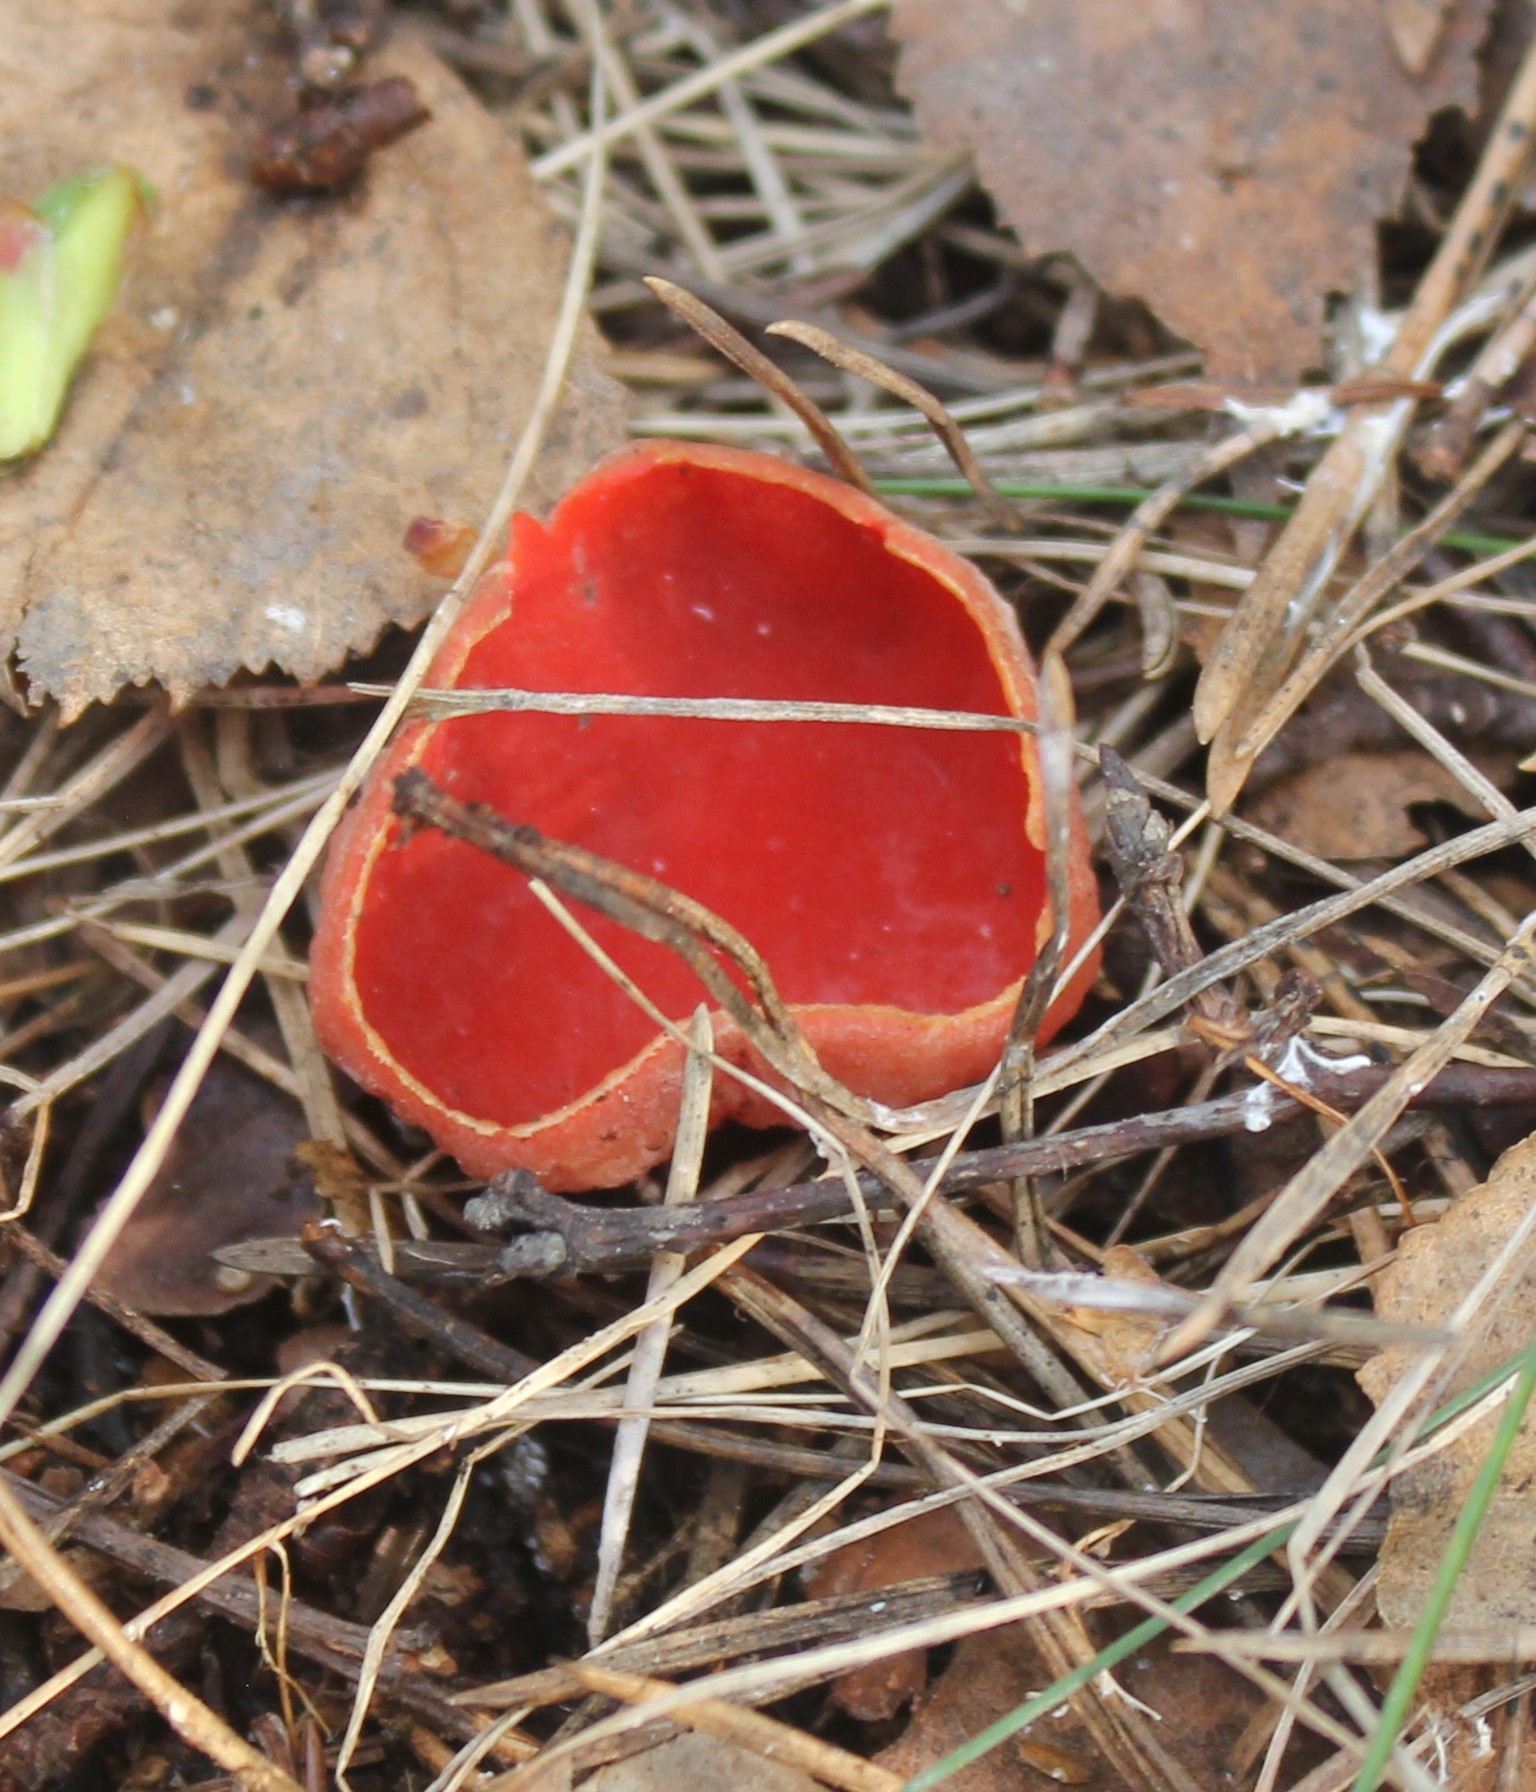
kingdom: Fungi
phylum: Ascomycota
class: Pezizomycetes
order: Pezizales
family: Sarcoscyphaceae
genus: Sarcoscypha
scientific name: Sarcoscypha austriaca
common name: Scarlet elfcup
